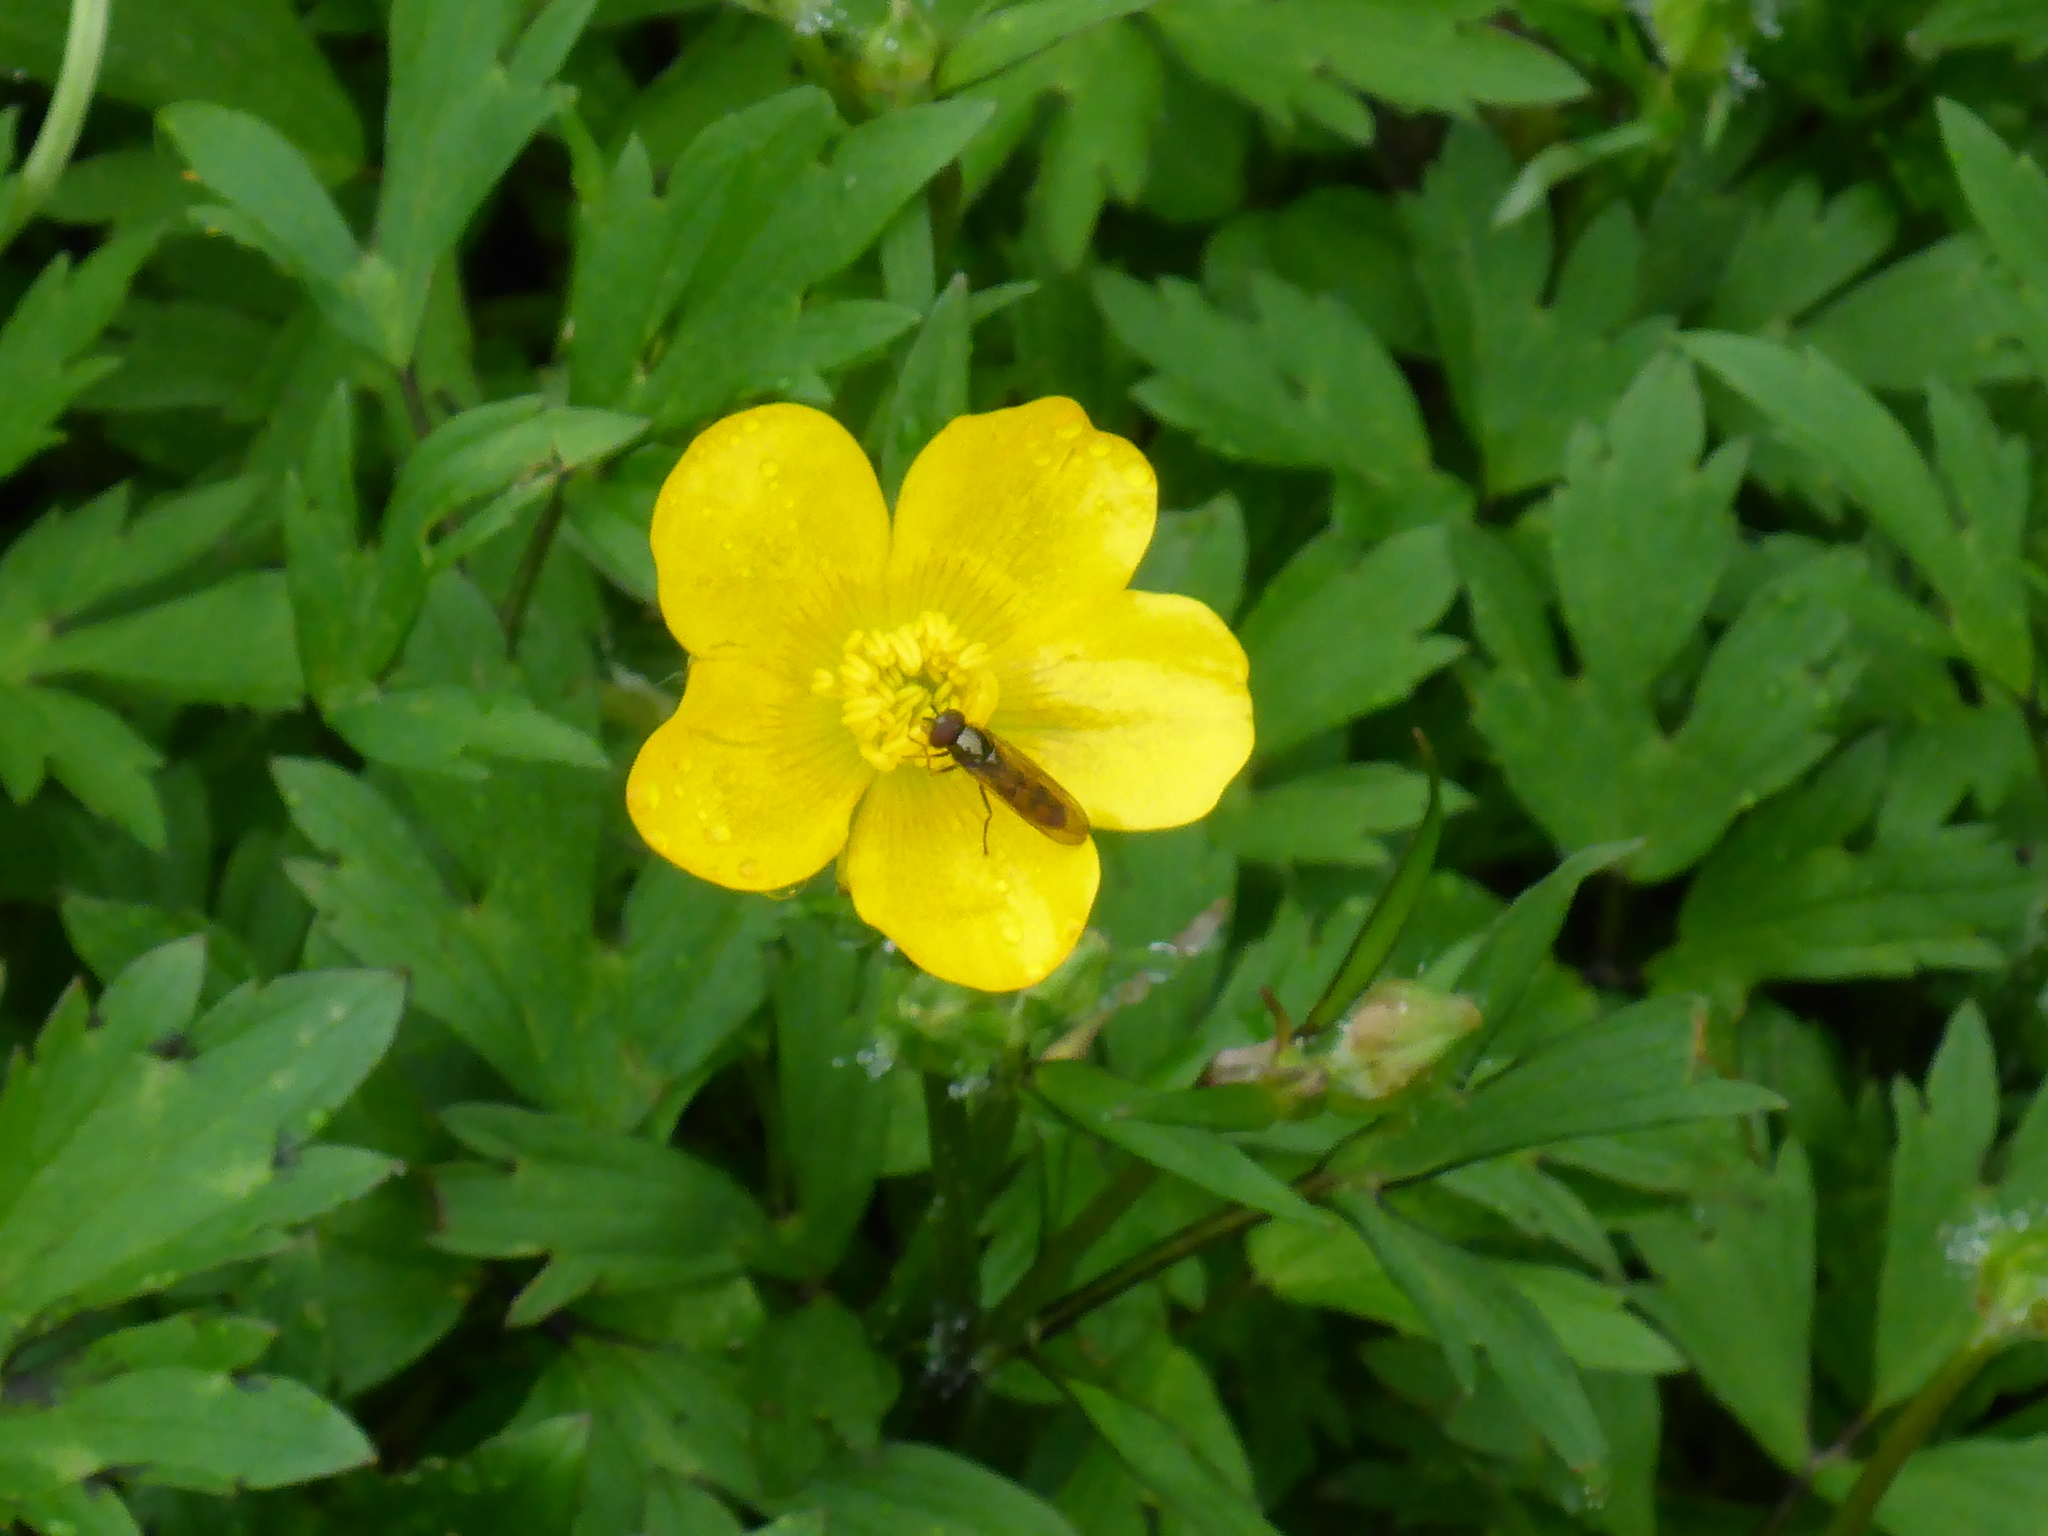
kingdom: Plantae
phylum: Tracheophyta
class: Magnoliopsida
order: Ranunculales
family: Ranunculaceae
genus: Ranunculus
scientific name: Ranunculus repens
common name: Creeping buttercup
